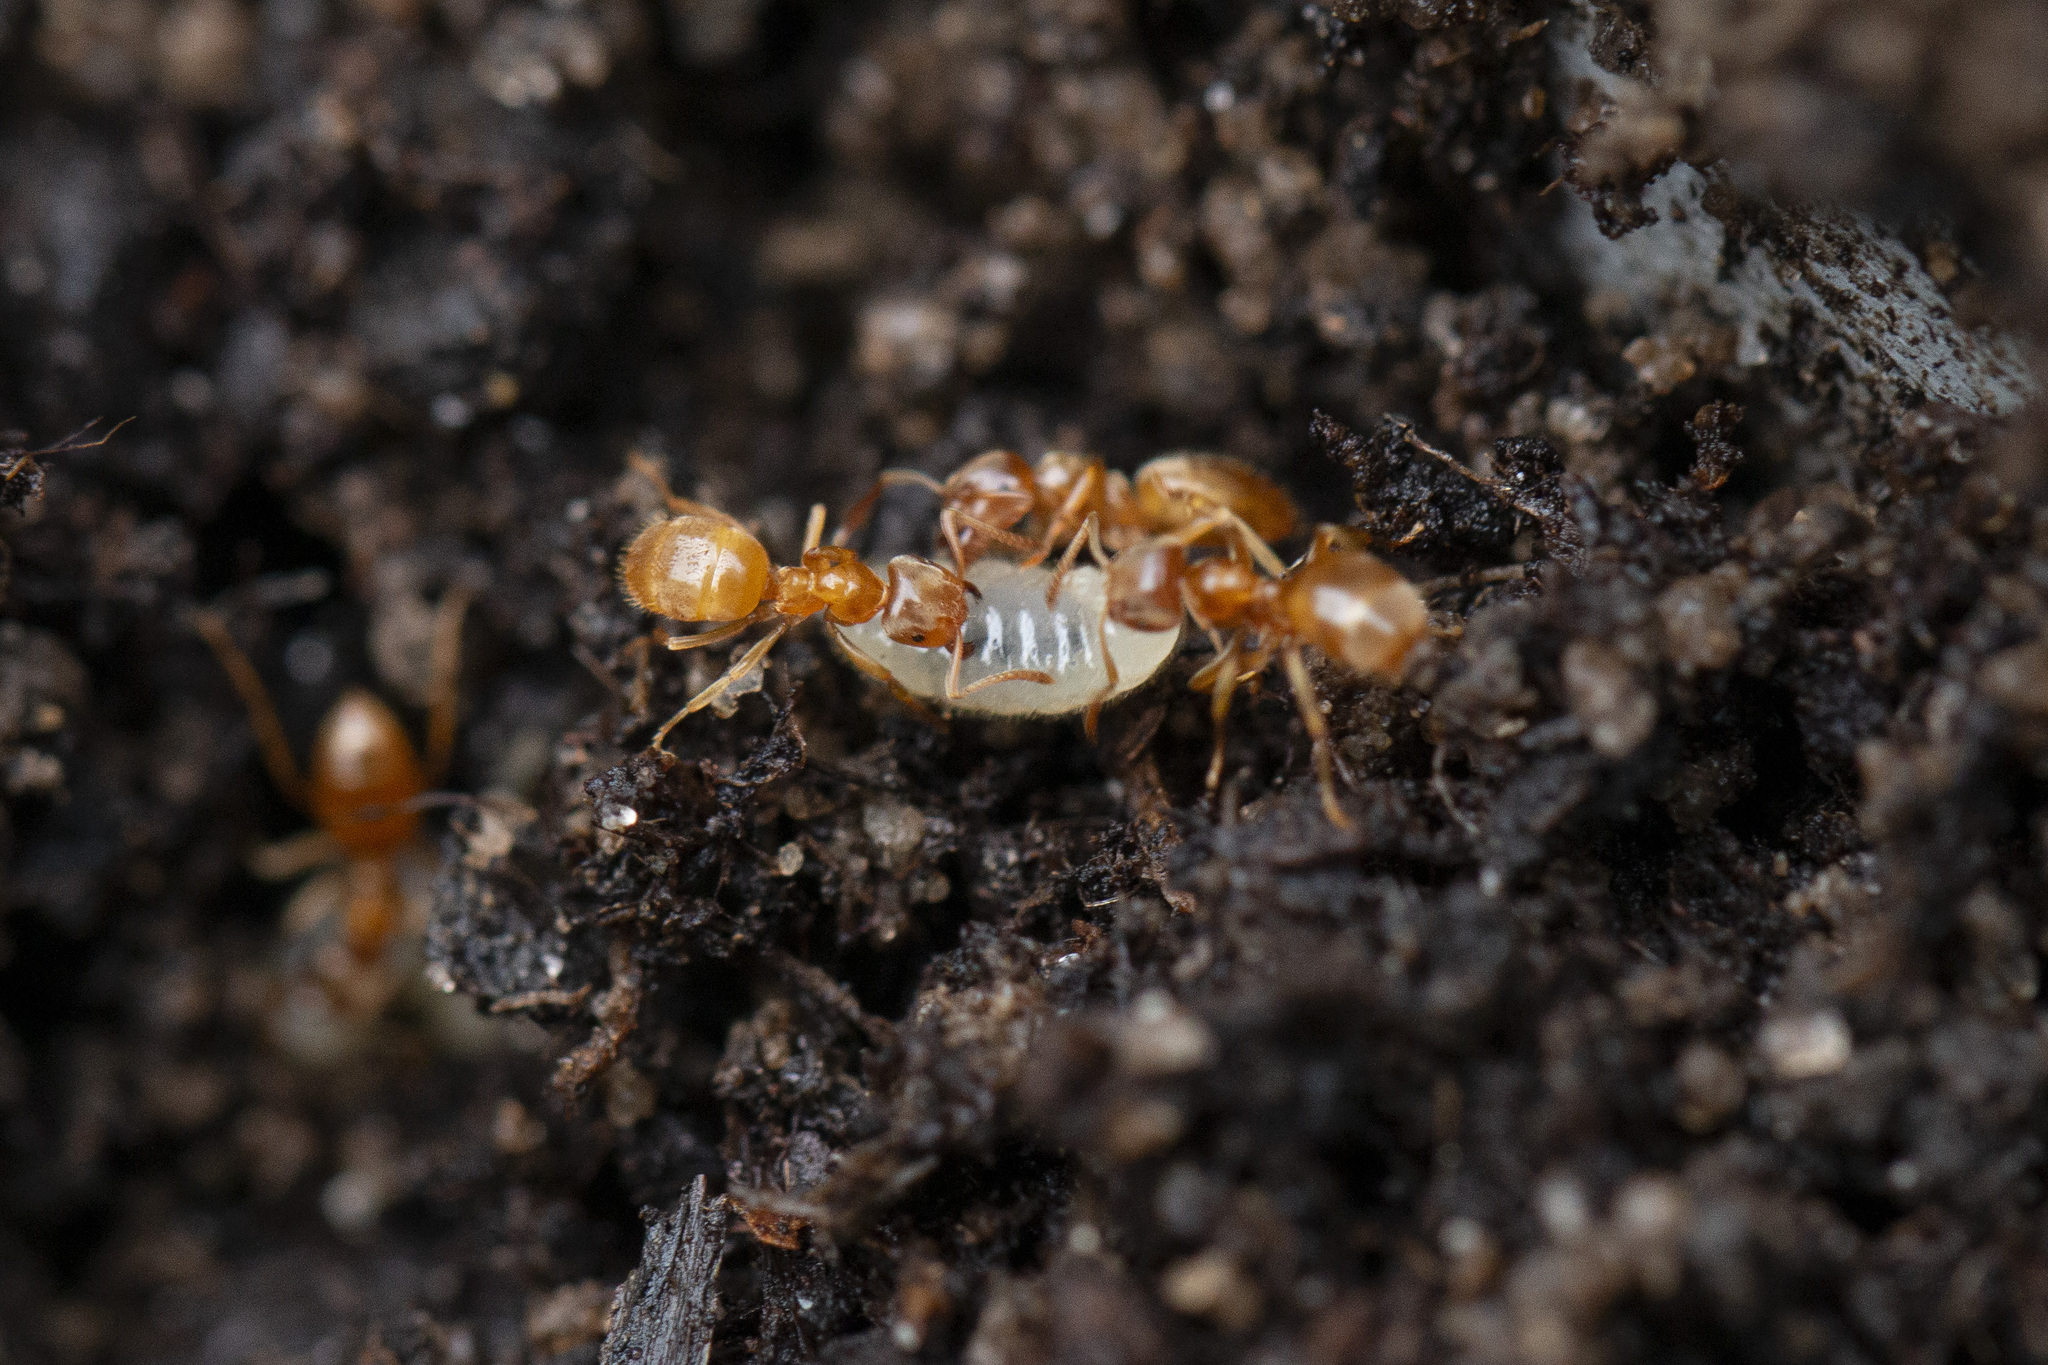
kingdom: Animalia
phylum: Arthropoda
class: Insecta
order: Hymenoptera
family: Formicidae
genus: Lasius
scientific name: Lasius flavus
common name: Blond field ant
